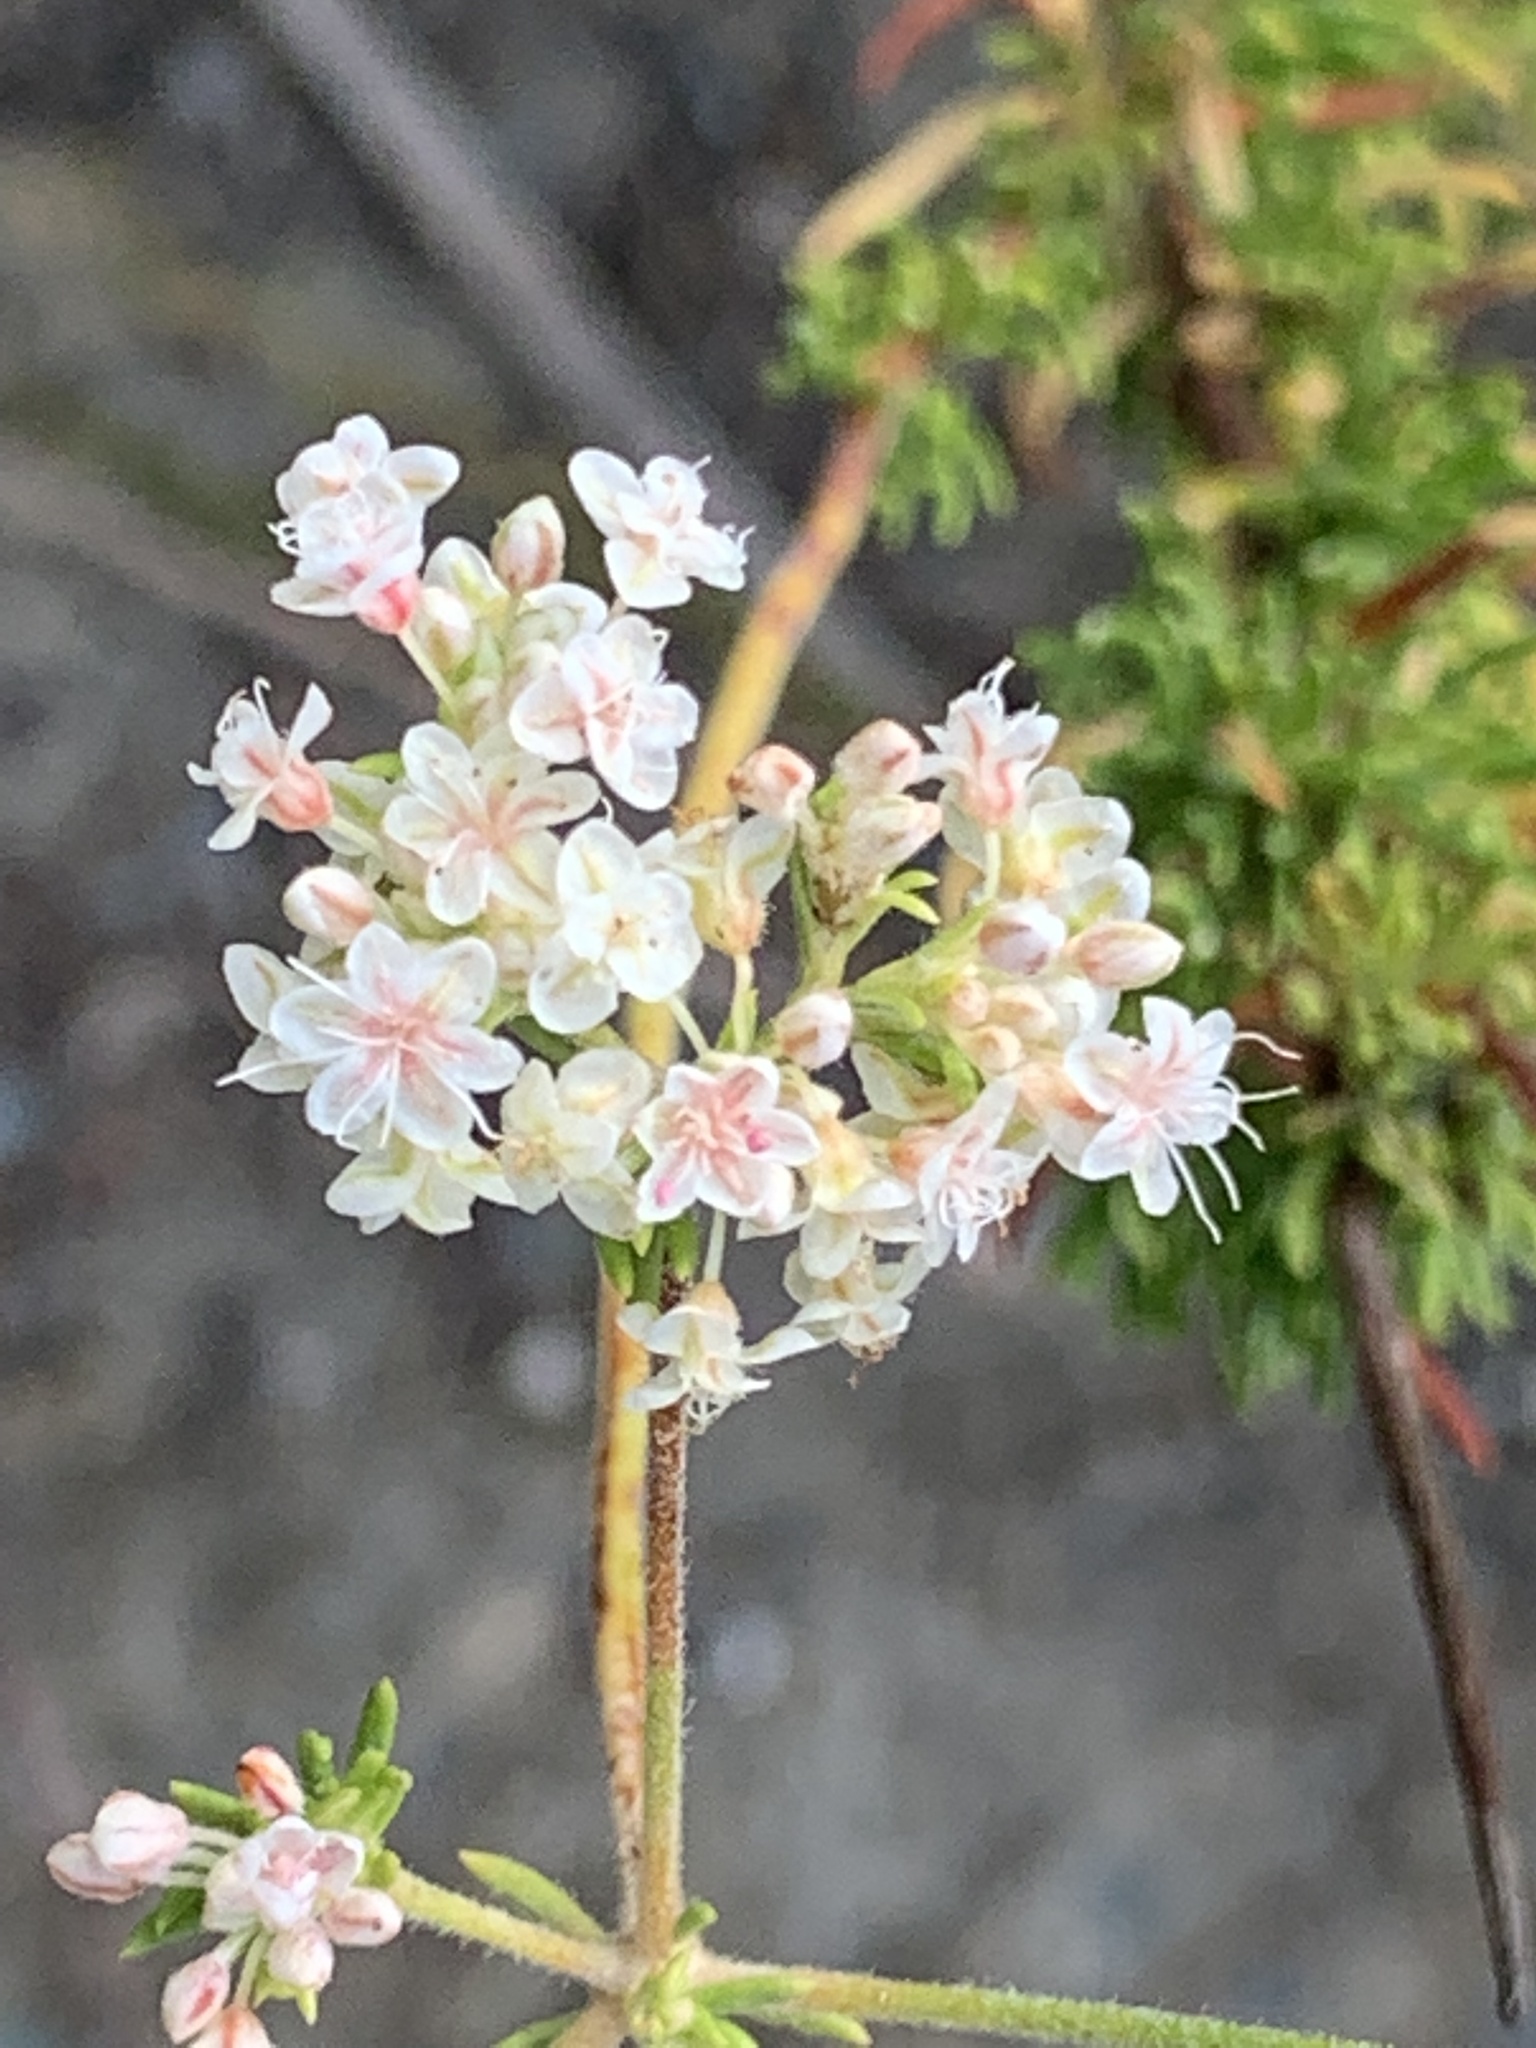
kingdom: Plantae
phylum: Tracheophyta
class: Magnoliopsida
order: Caryophyllales
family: Polygonaceae
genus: Eriogonum
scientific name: Eriogonum fasciculatum
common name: California wild buckwheat
